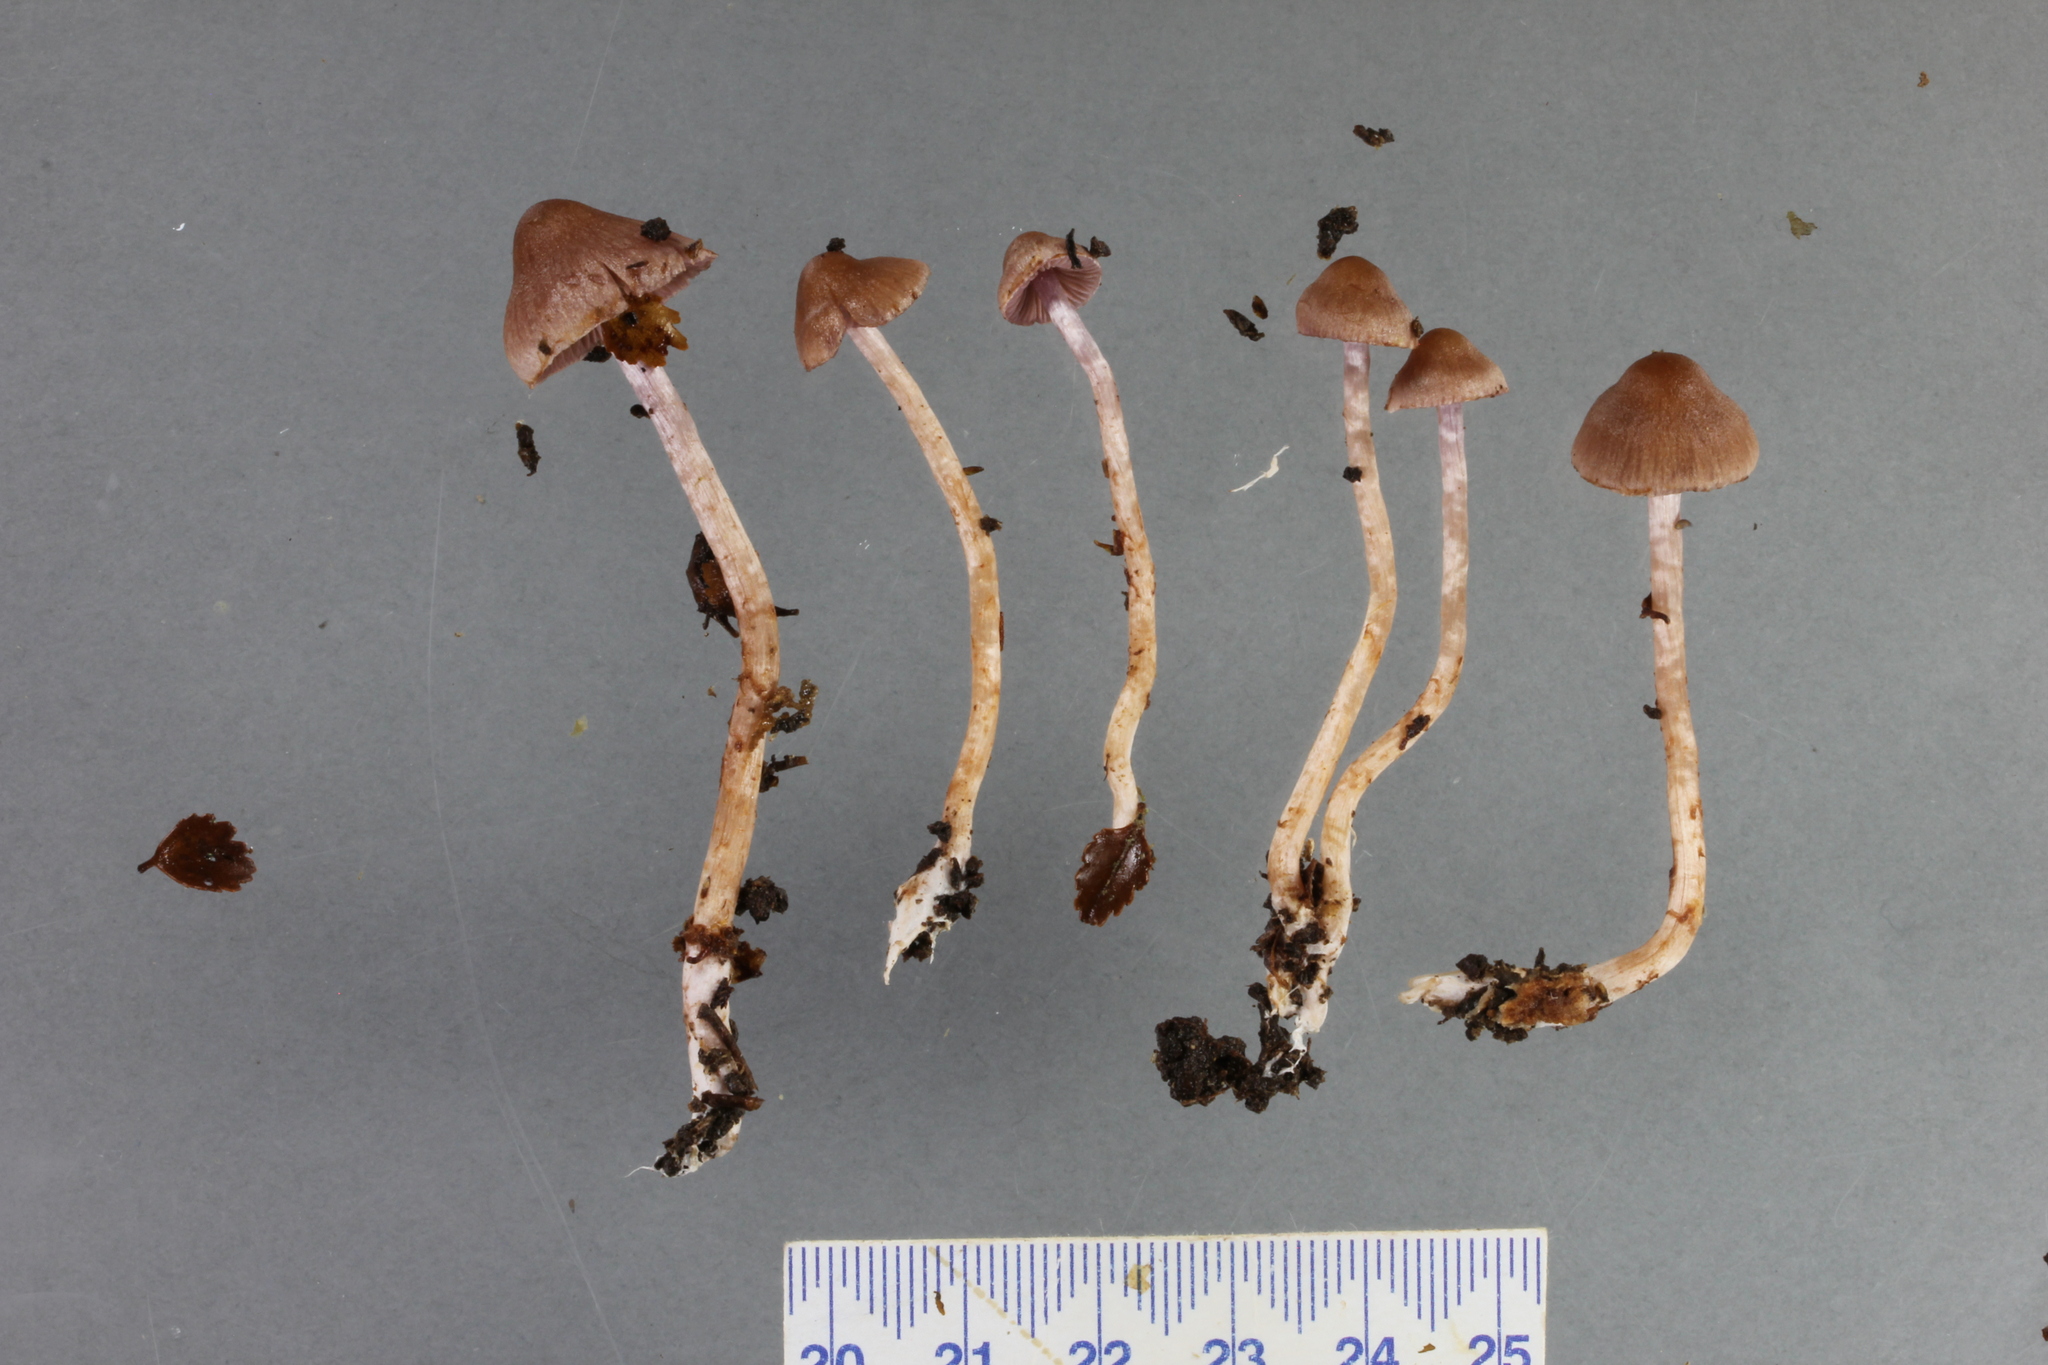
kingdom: Fungi
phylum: Basidiomycota
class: Agaricomycetes
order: Agaricales
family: Cortinariaceae
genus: Cortinarius
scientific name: Cortinarius durifoliorum
